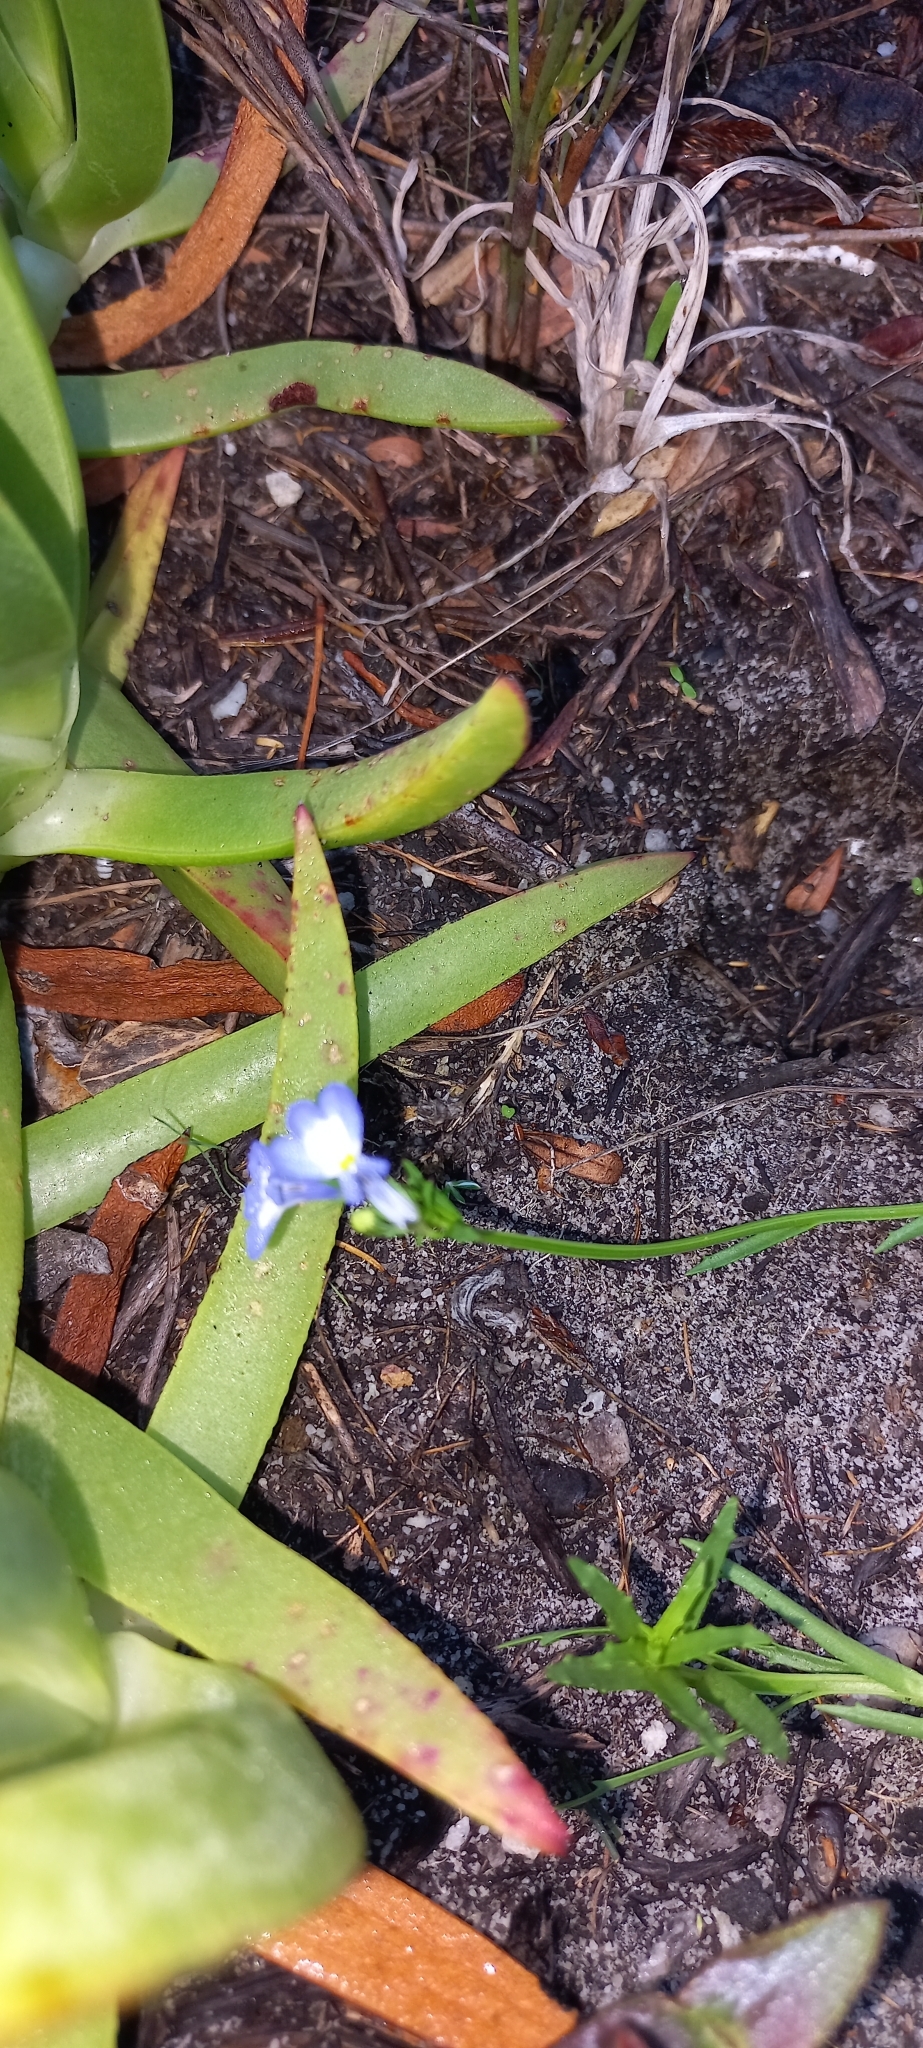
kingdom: Plantae
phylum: Tracheophyta
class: Magnoliopsida
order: Asterales
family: Campanulaceae
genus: Lobelia
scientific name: Lobelia comosa
